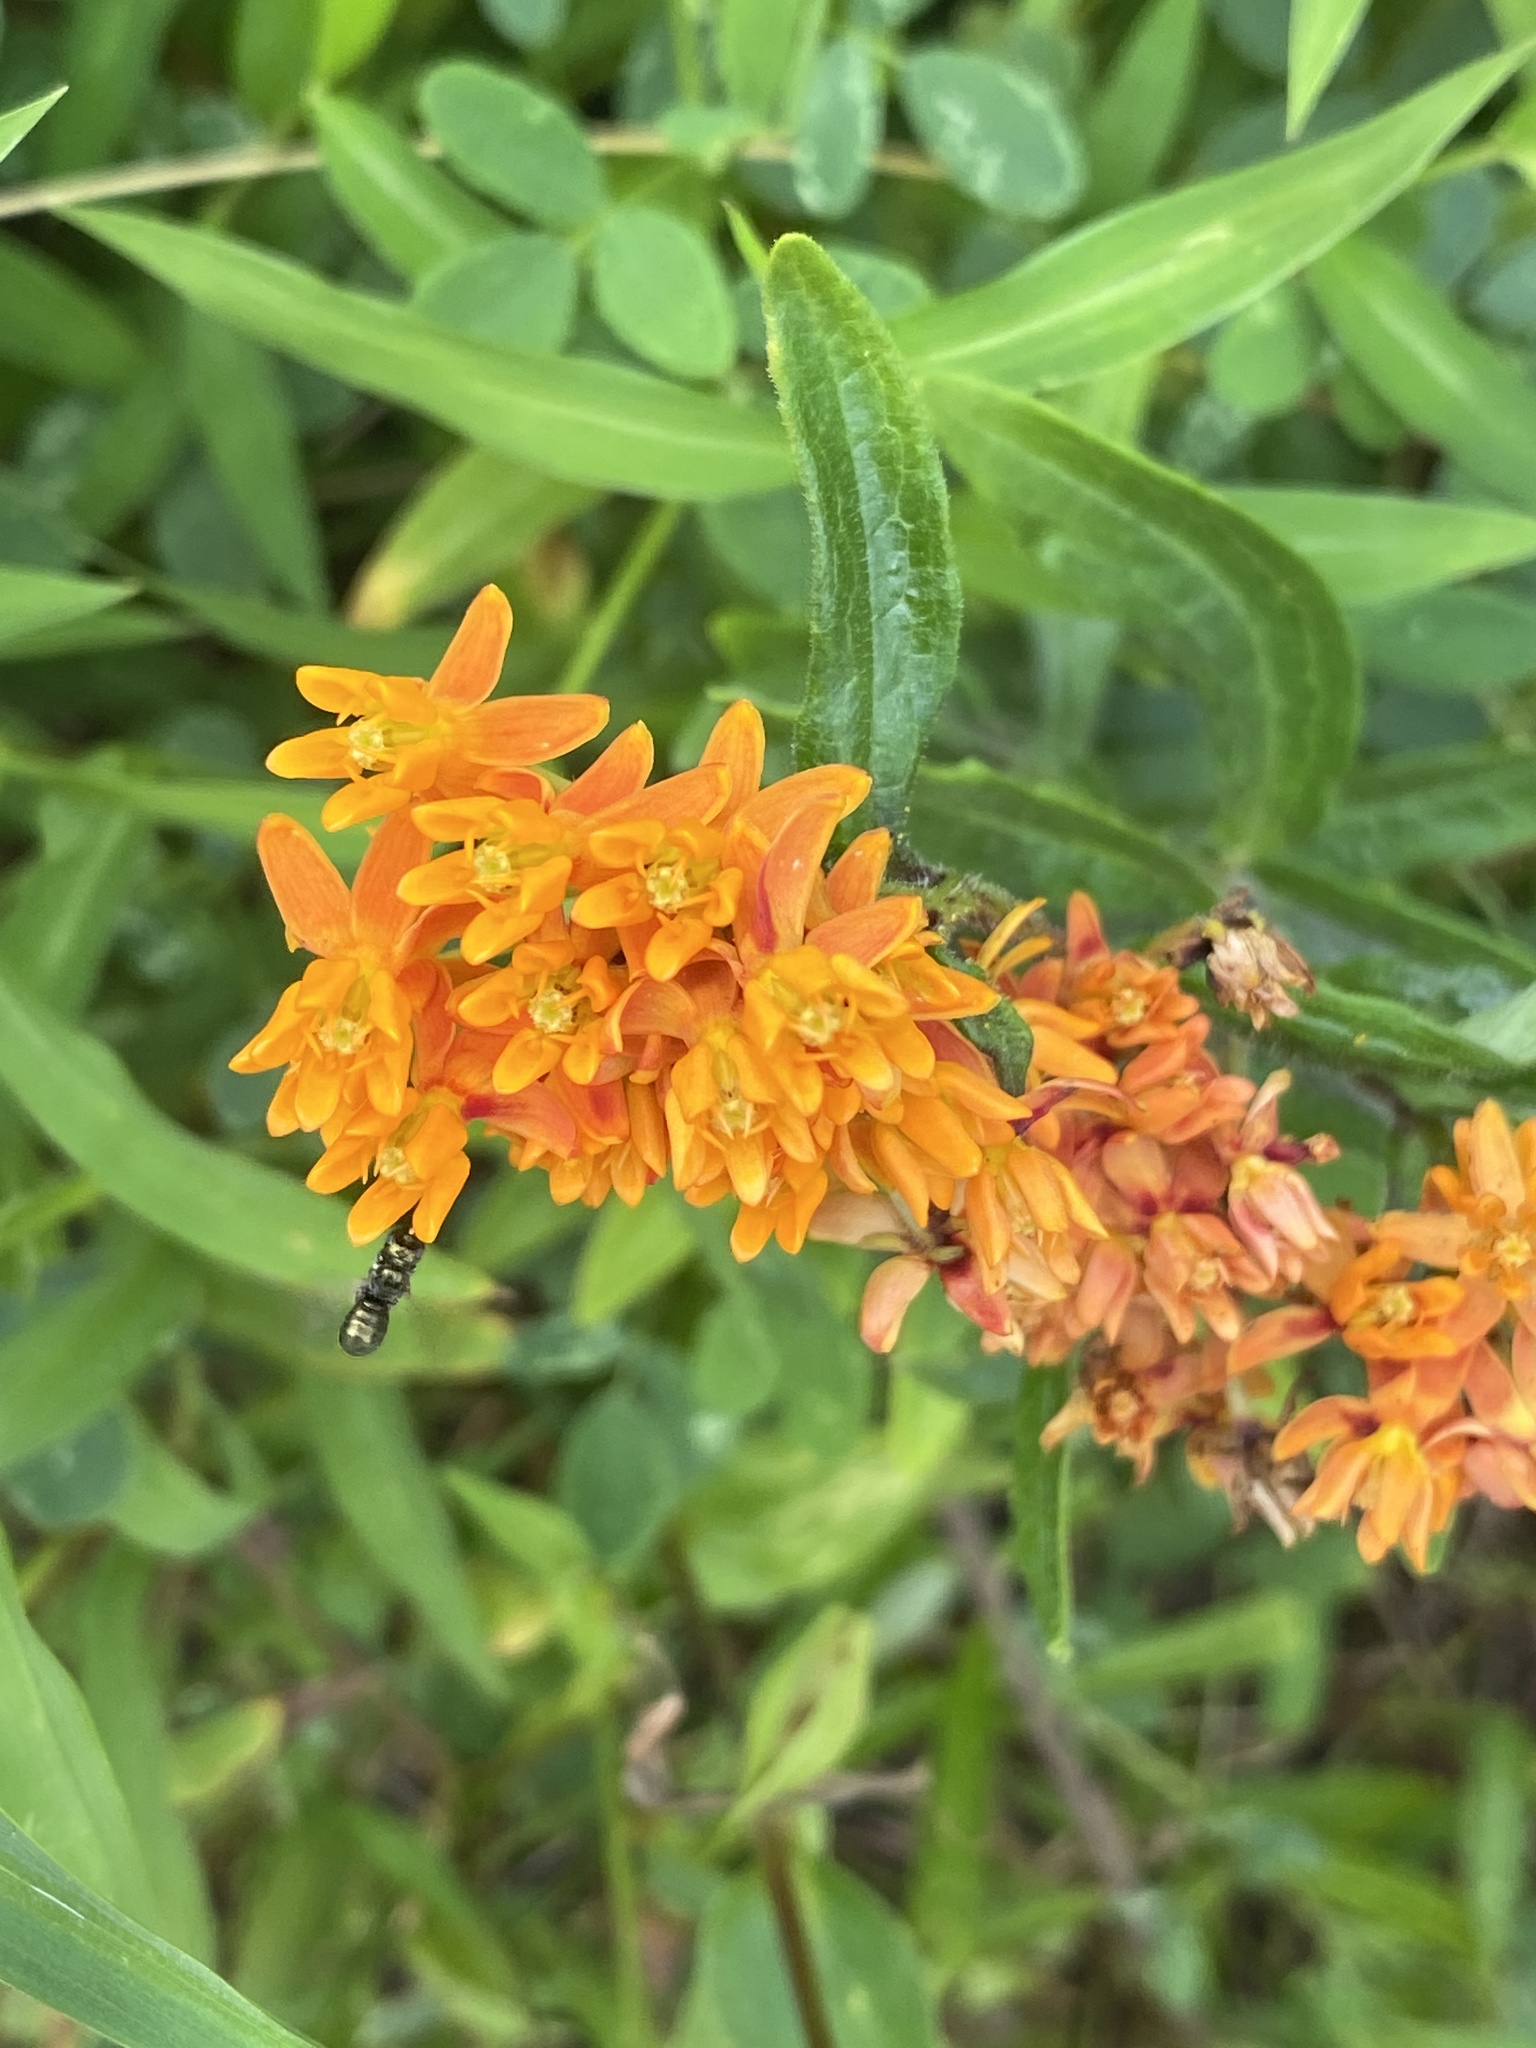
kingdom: Plantae
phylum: Tracheophyta
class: Magnoliopsida
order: Gentianales
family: Apocynaceae
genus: Asclepias
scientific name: Asclepias tuberosa
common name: Butterfly milkweed
